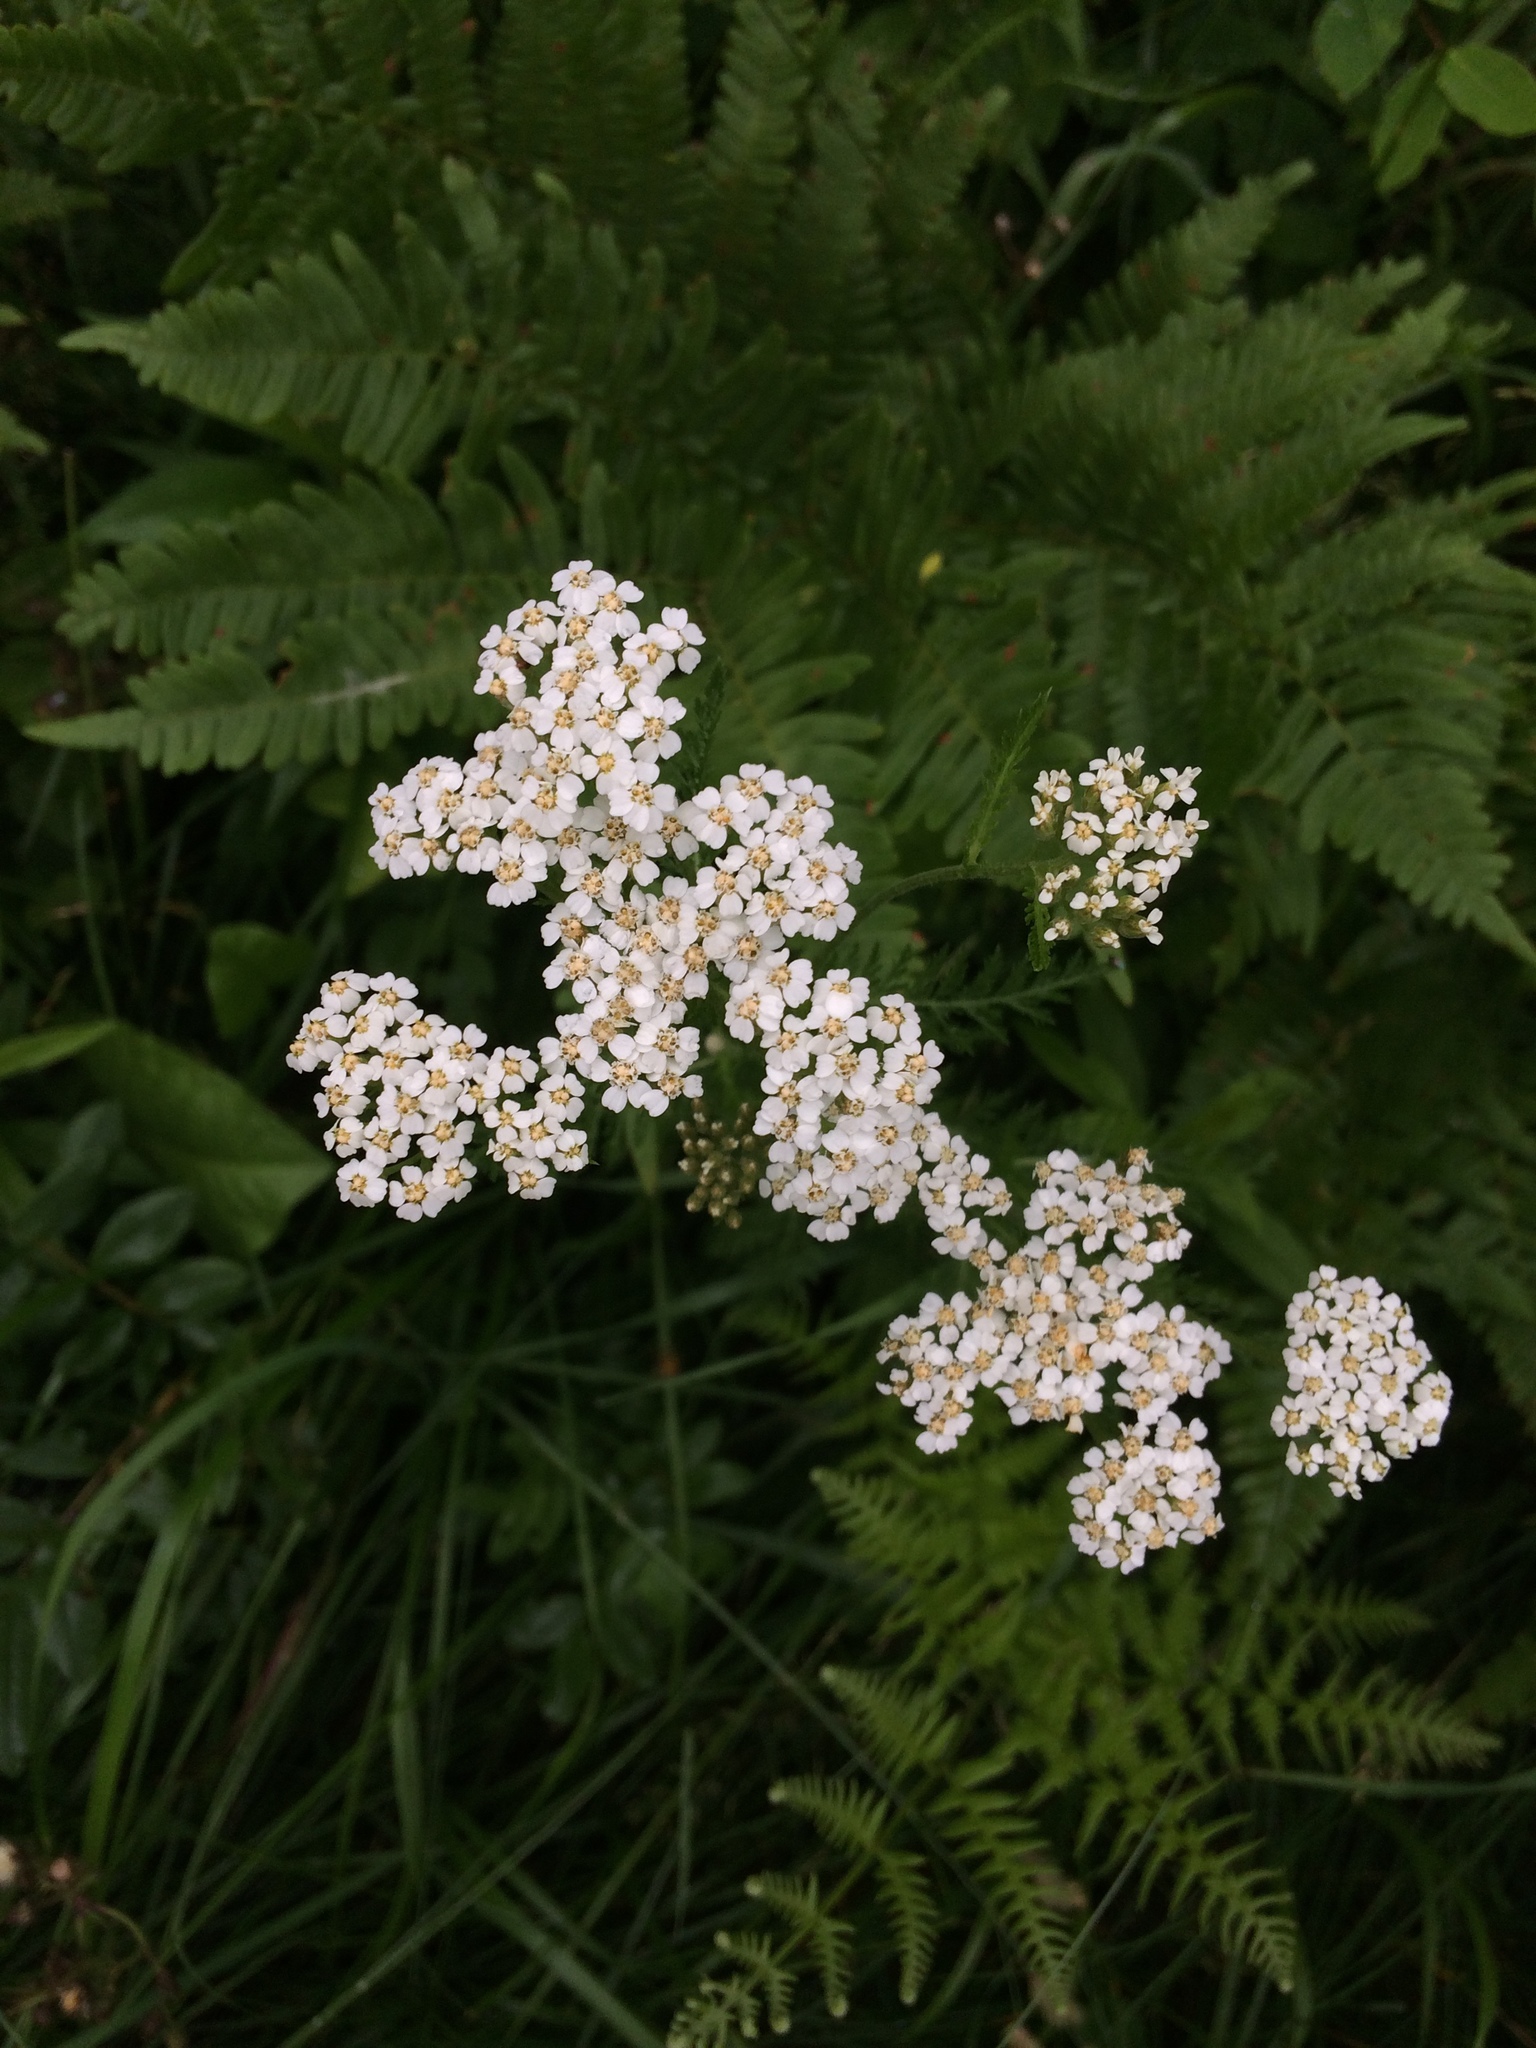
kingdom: Plantae
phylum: Tracheophyta
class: Magnoliopsida
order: Asterales
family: Asteraceae
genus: Achillea
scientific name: Achillea millefolium
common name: Yarrow
